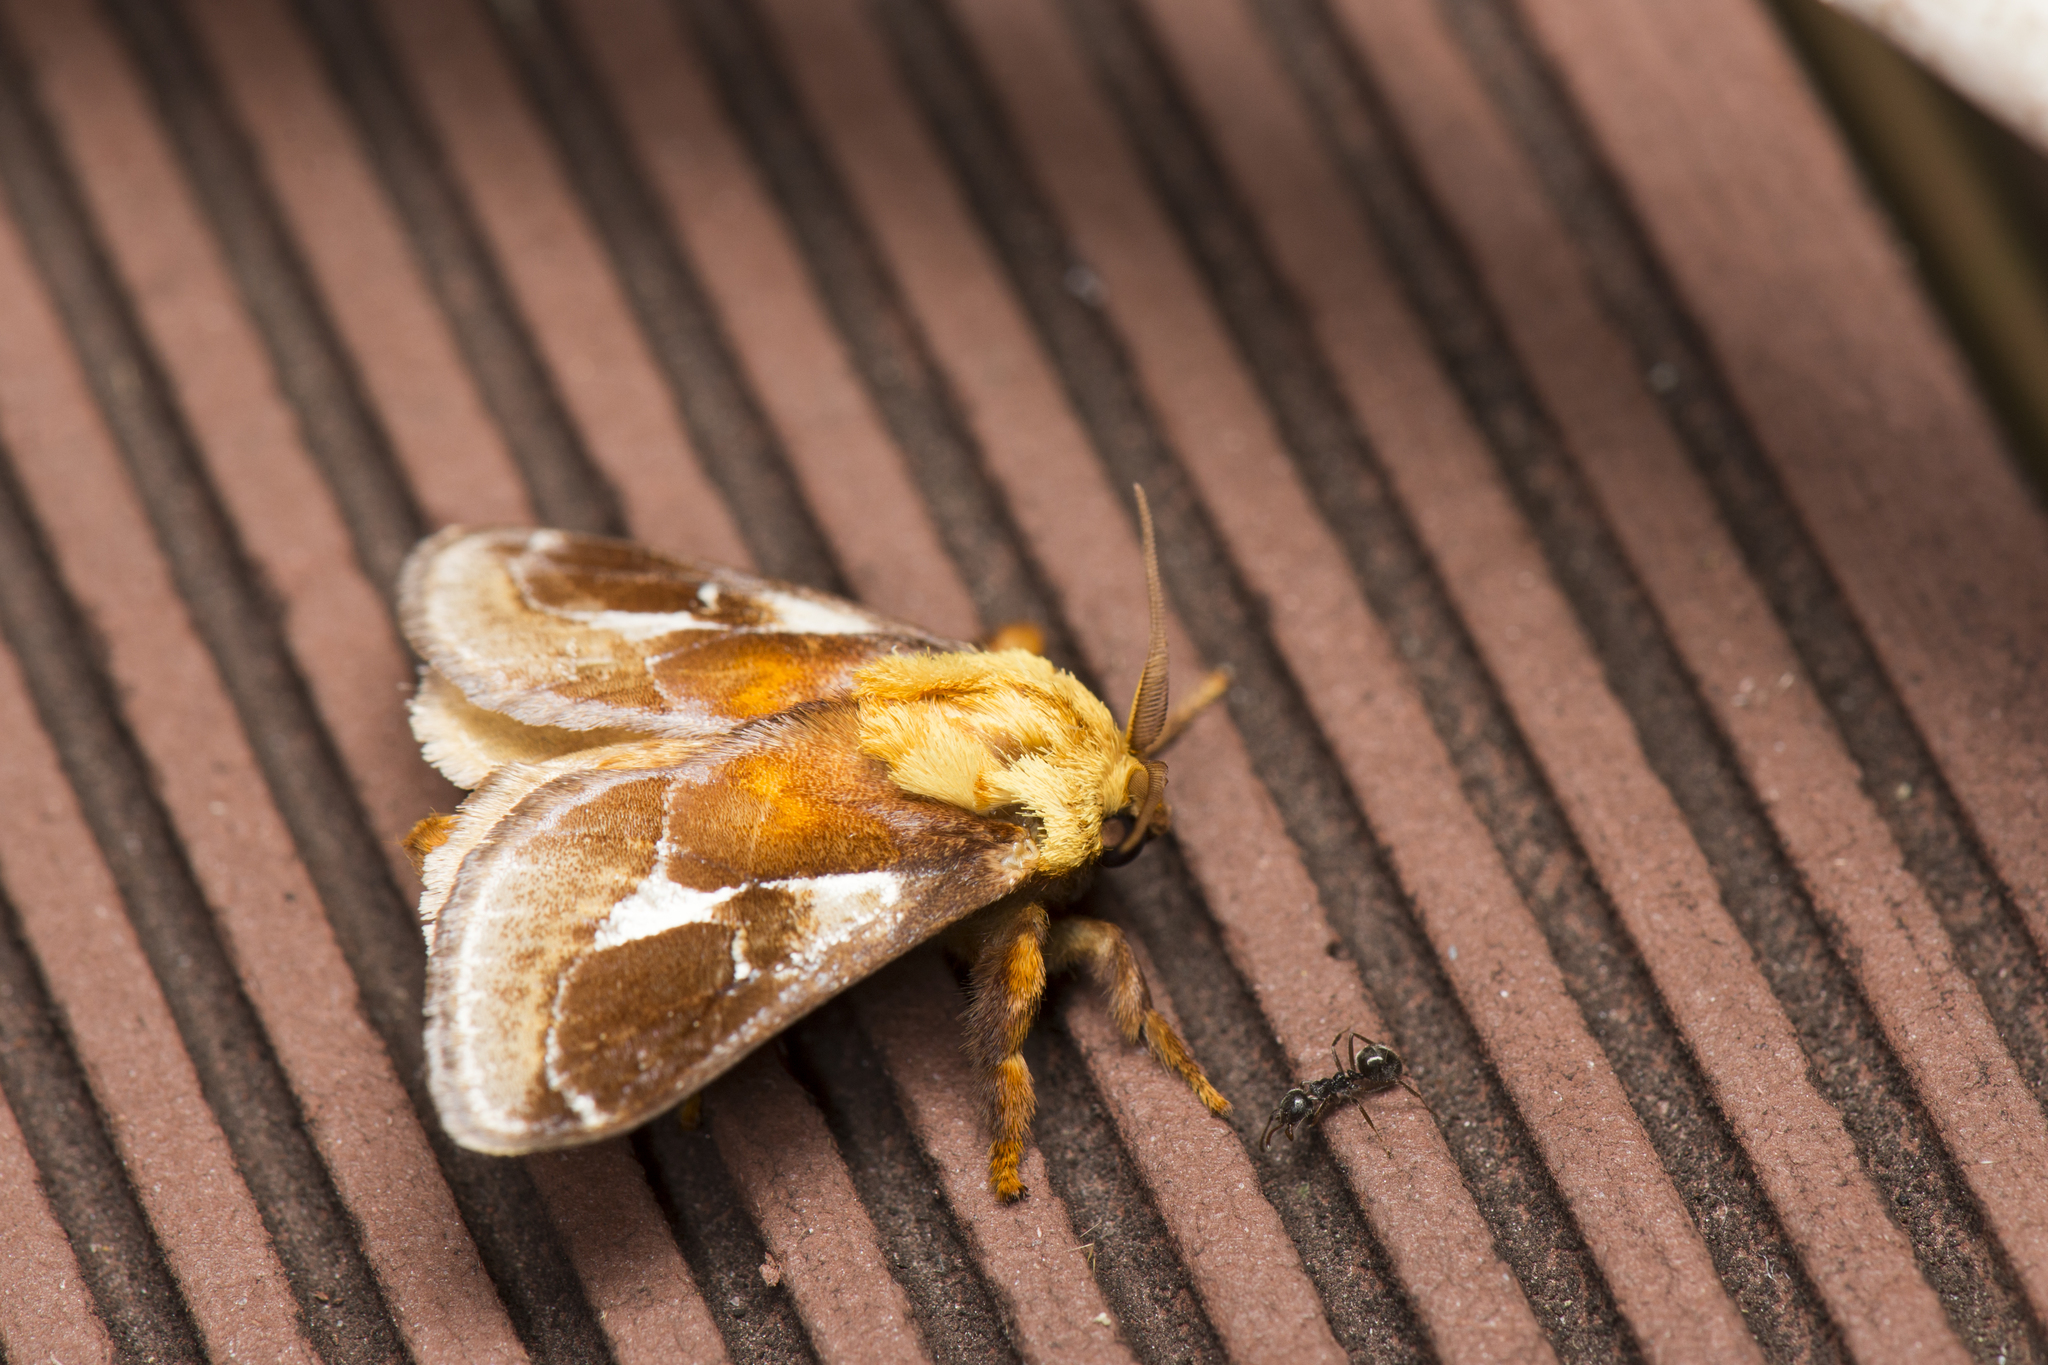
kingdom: Animalia
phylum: Arthropoda
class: Insecta
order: Lepidoptera
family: Limacodidae
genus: Miresa
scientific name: Miresa fulgida
